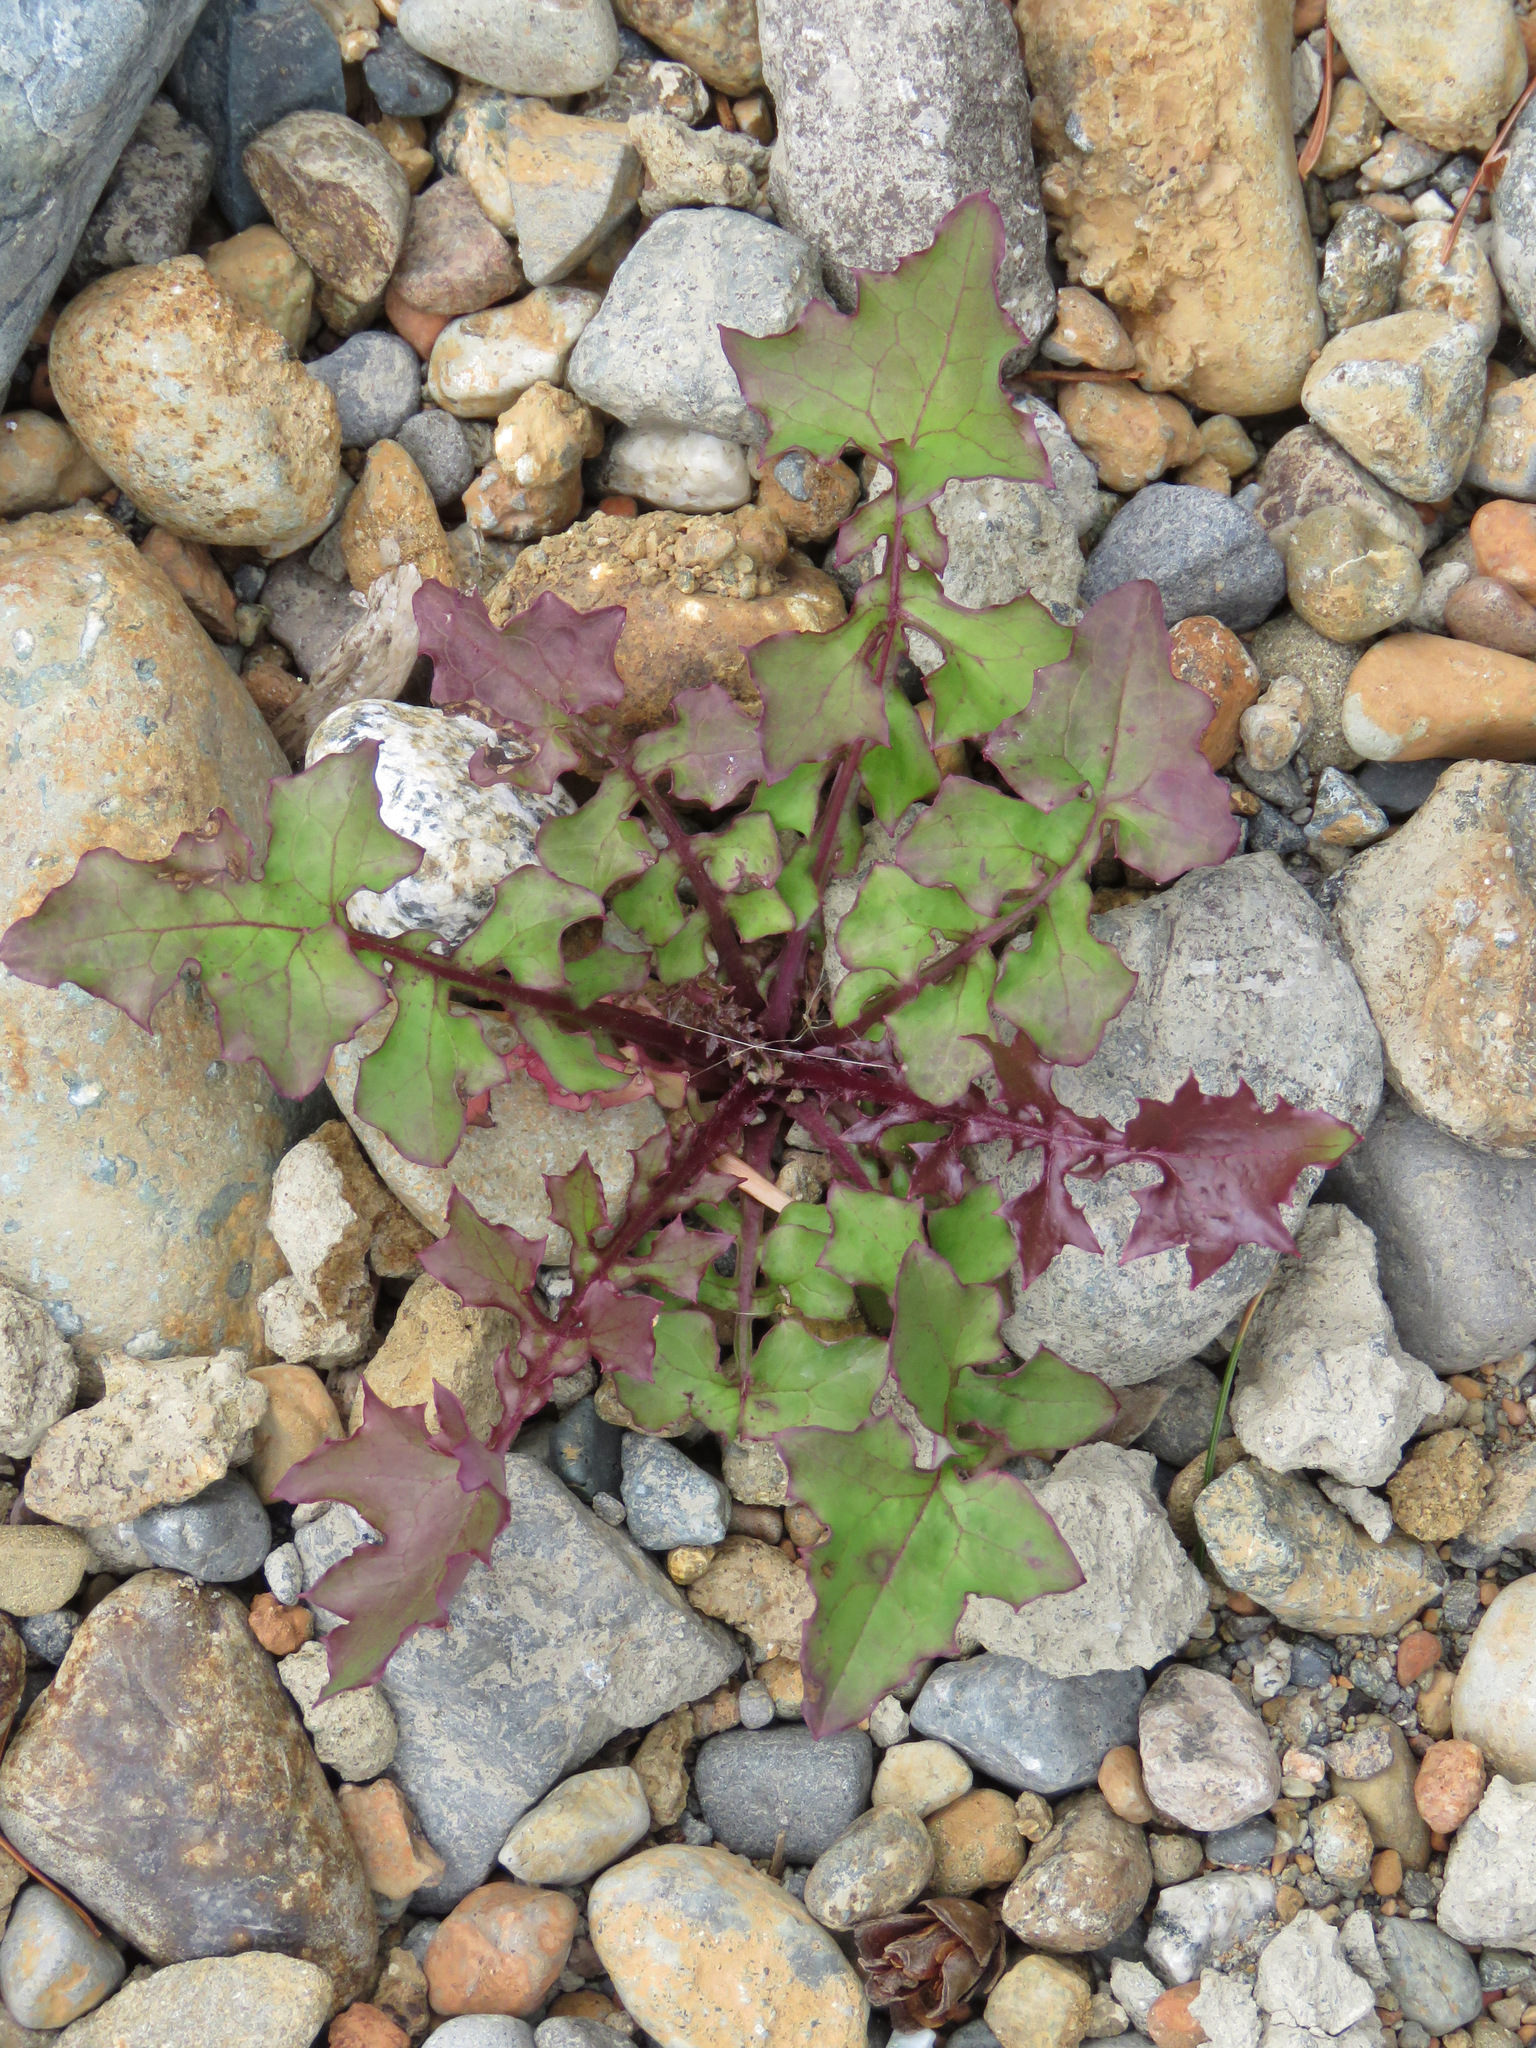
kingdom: Plantae
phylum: Tracheophyta
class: Magnoliopsida
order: Asterales
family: Asteraceae
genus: Mycelis
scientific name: Mycelis muralis
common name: Wall lettuce
